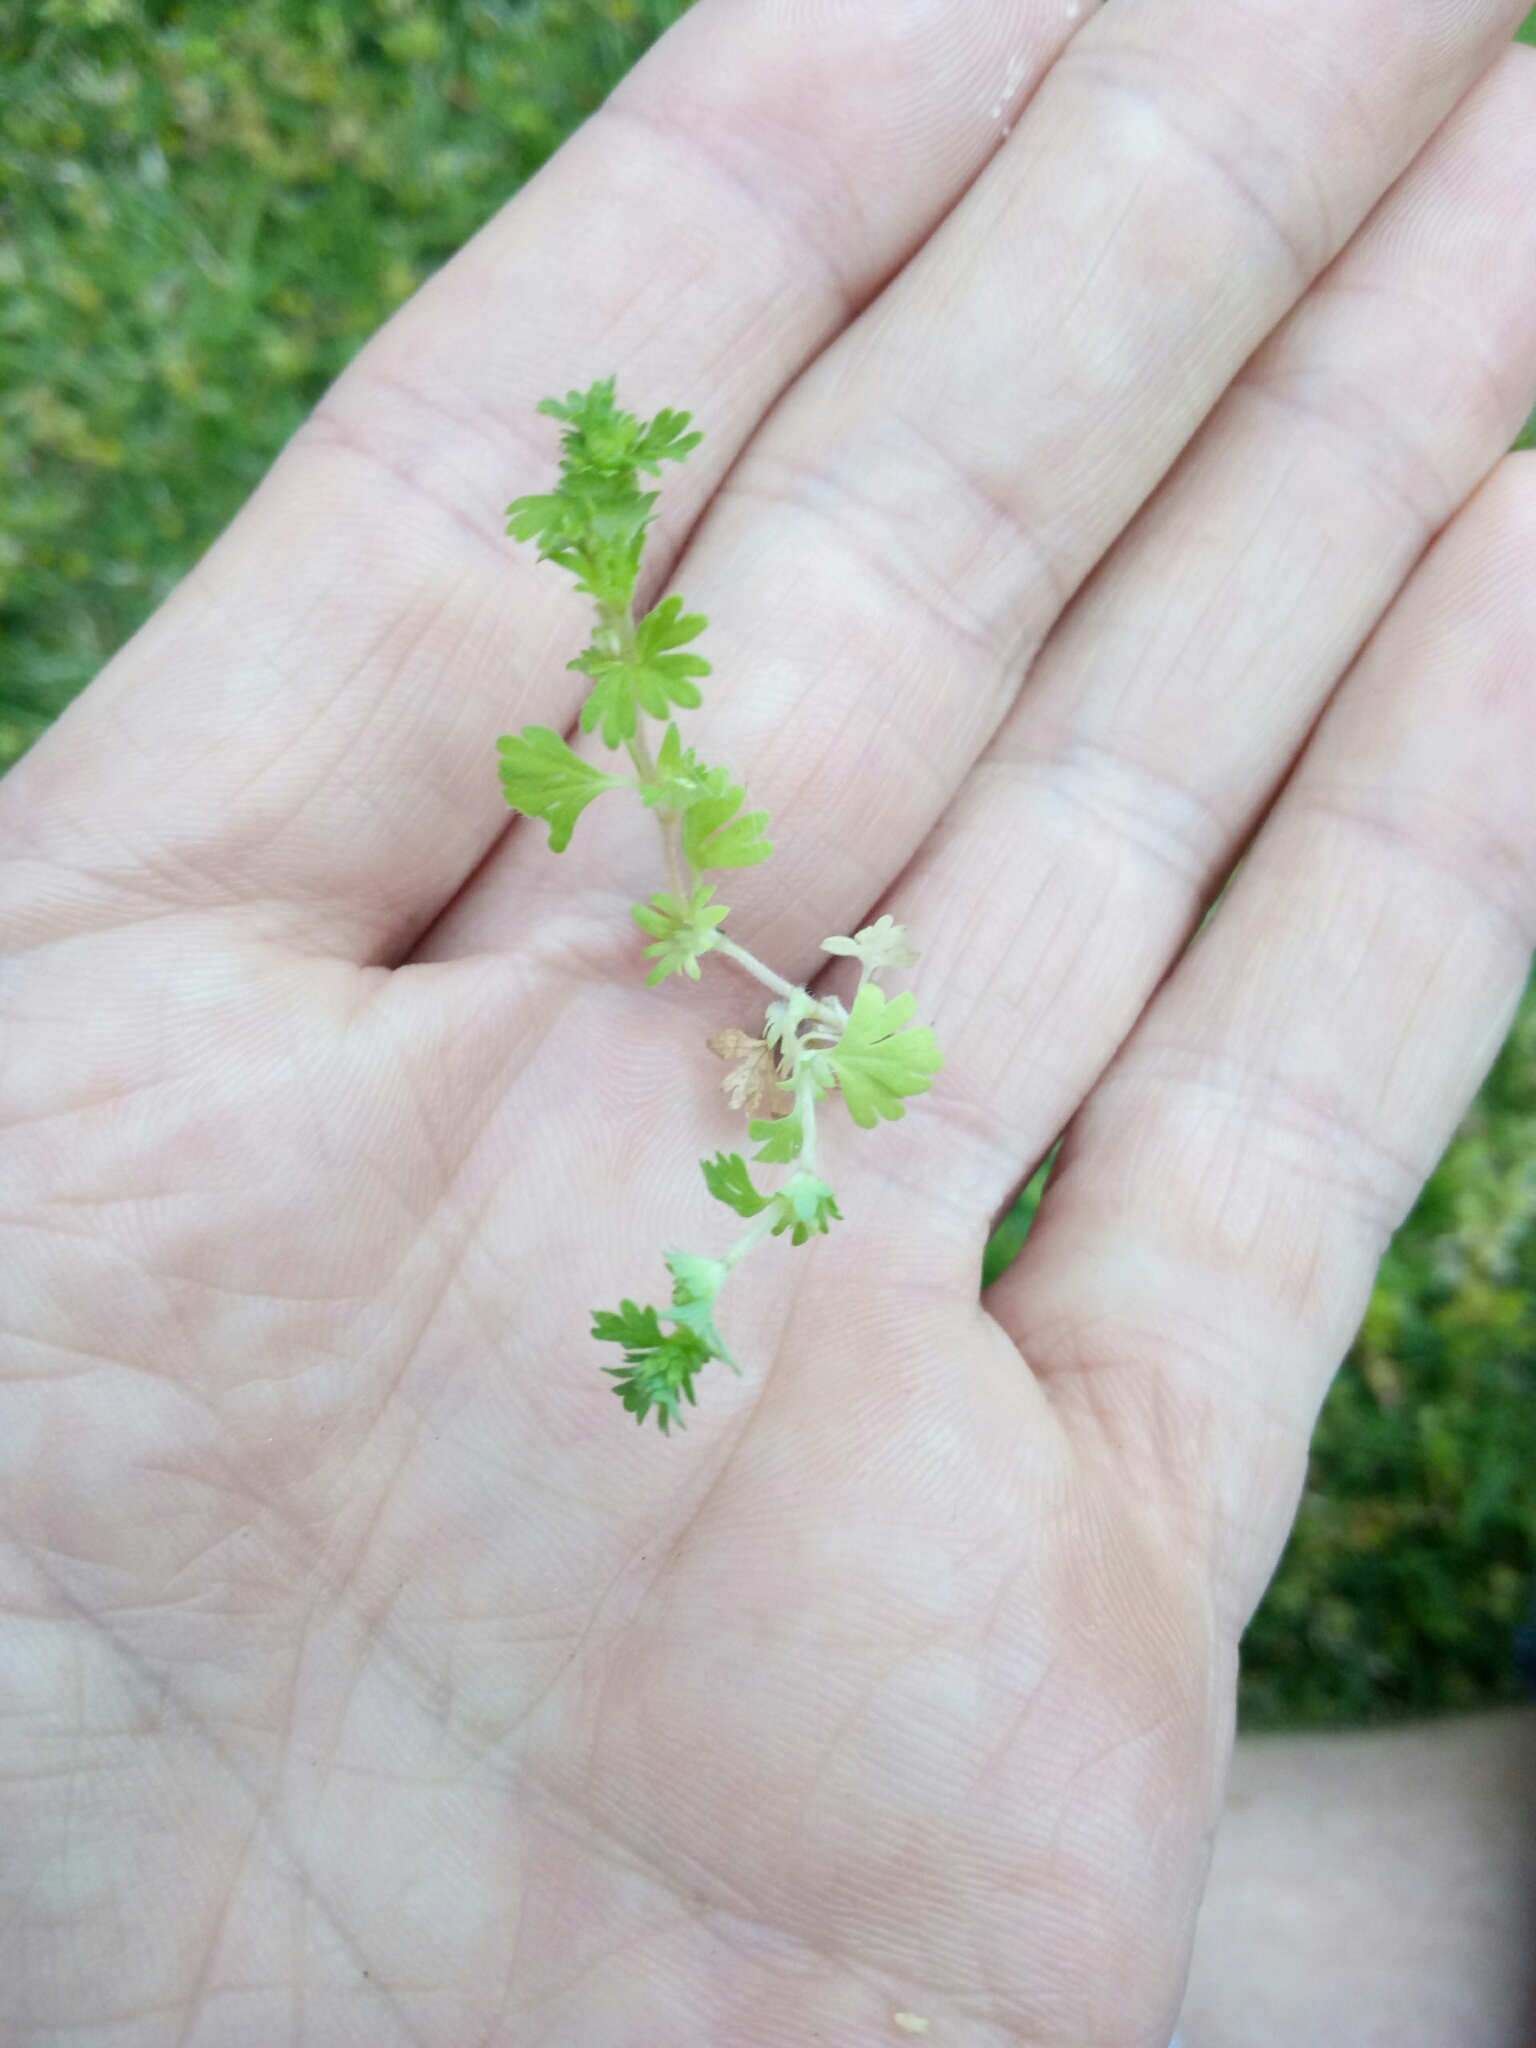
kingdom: Plantae
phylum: Tracheophyta
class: Magnoliopsida
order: Rosales
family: Rosaceae
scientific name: Rosaceae
